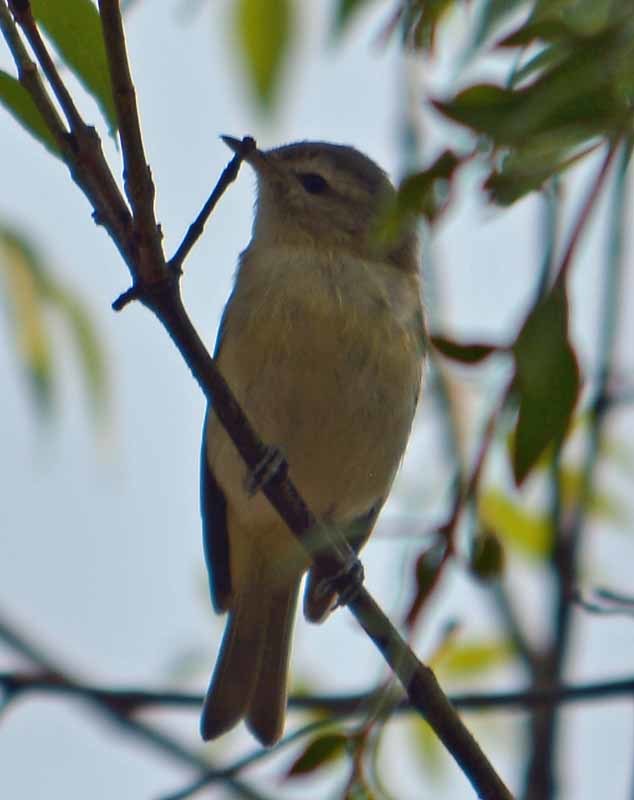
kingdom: Animalia
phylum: Chordata
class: Aves
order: Passeriformes
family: Vireonidae
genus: Vireo
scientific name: Vireo gilvus
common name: Warbling vireo
